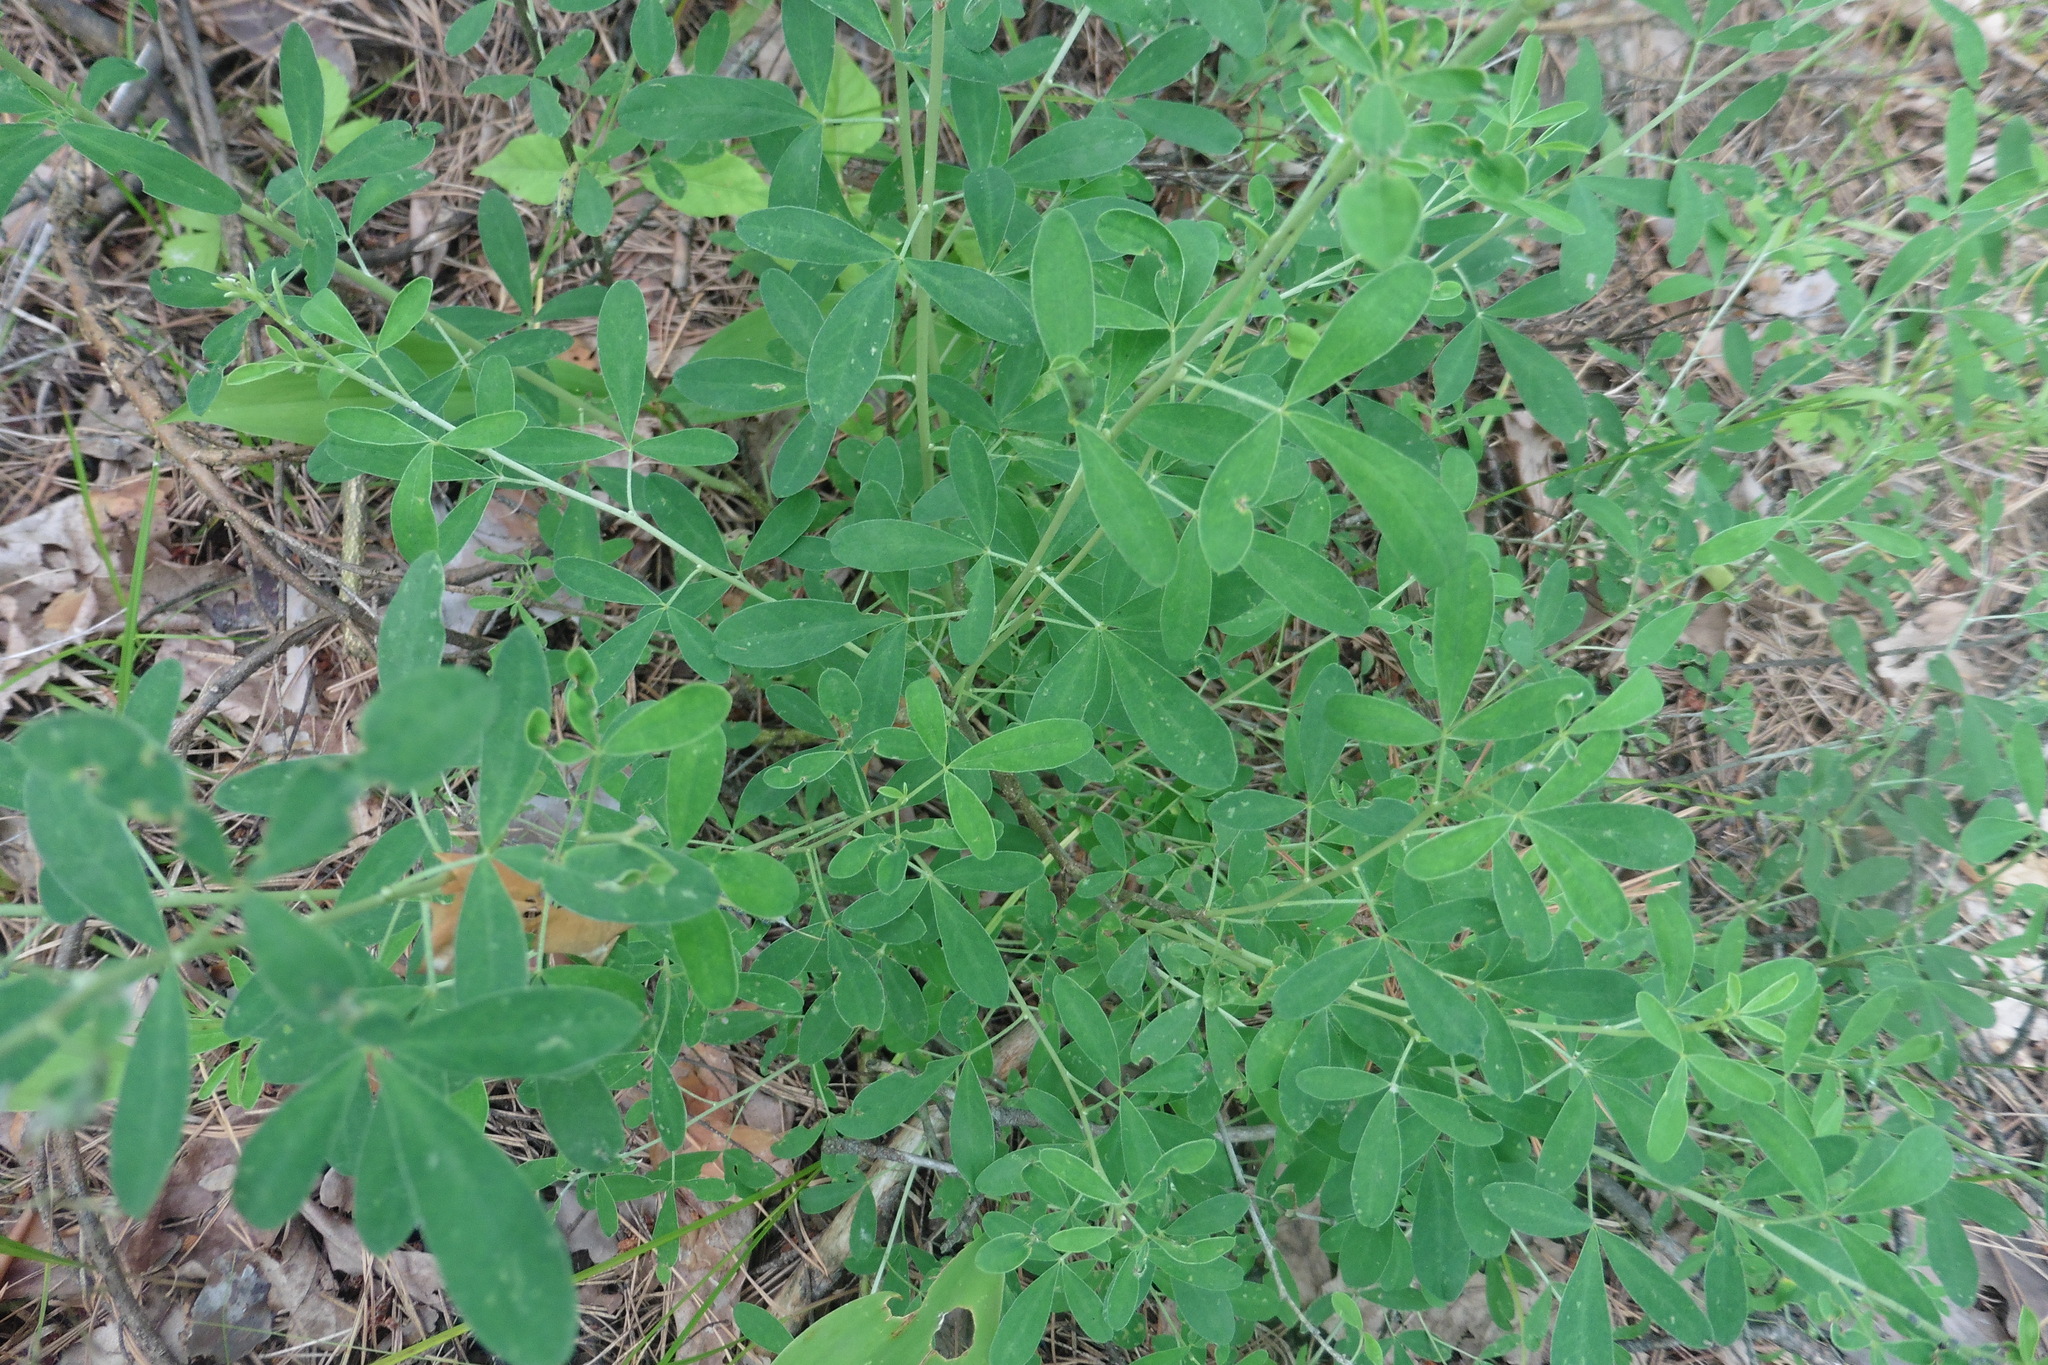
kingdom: Plantae
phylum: Tracheophyta
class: Magnoliopsida
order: Fabales
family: Fabaceae
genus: Chamaecytisus
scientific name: Chamaecytisus ruthenicus
